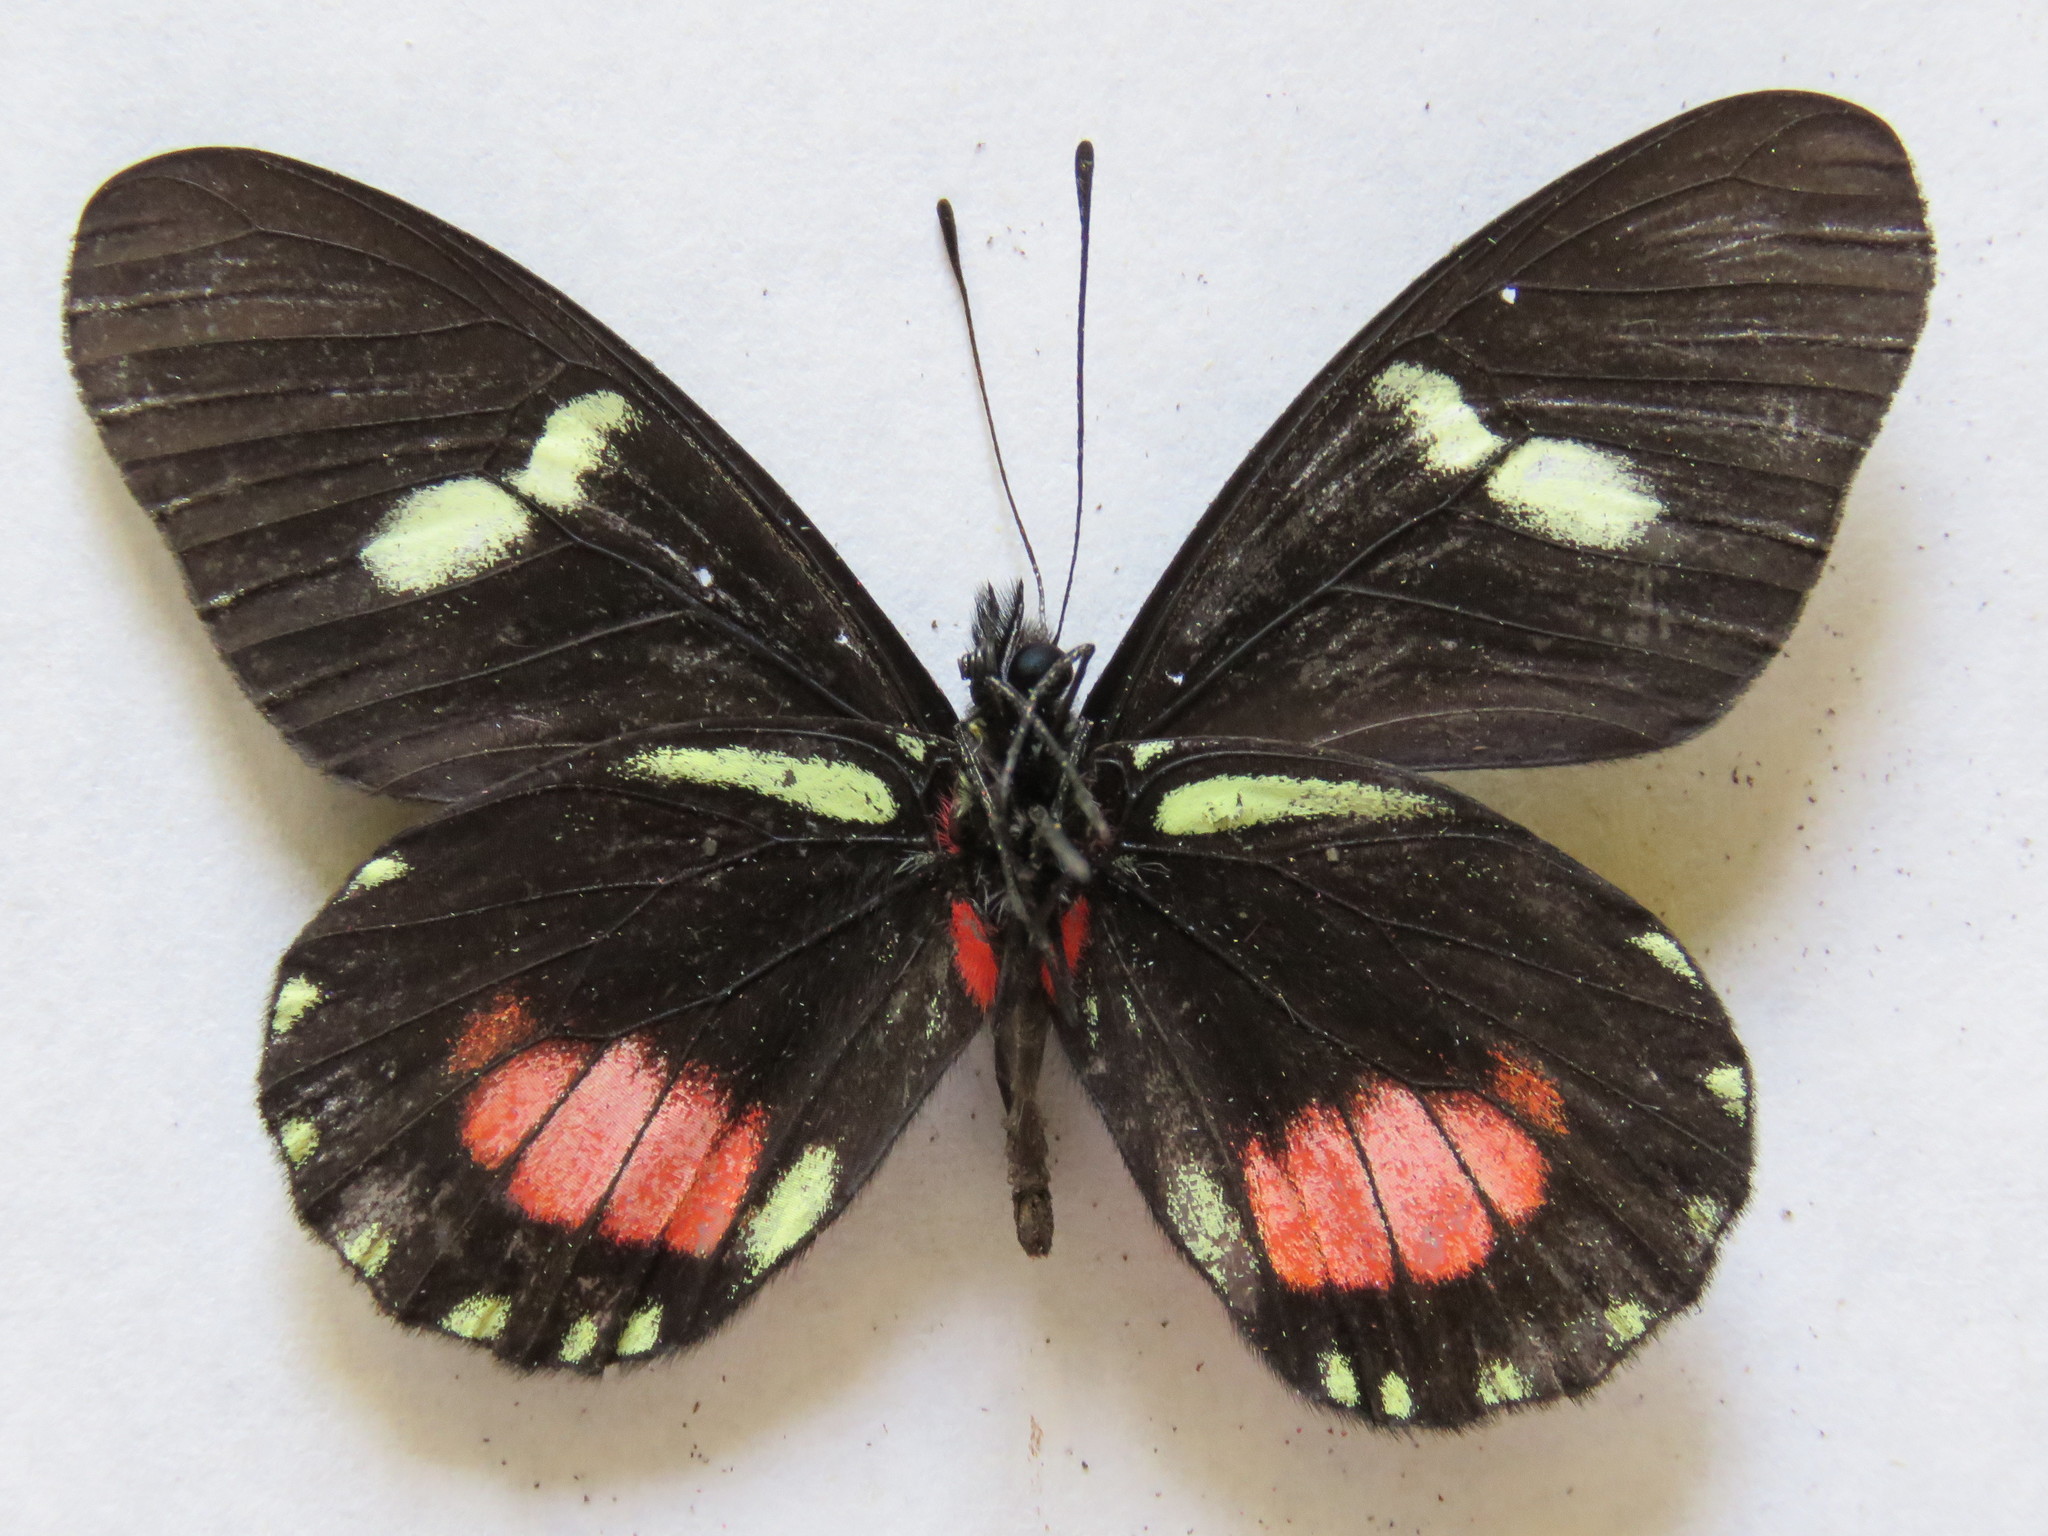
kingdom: Animalia
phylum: Arthropoda
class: Insecta
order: Lepidoptera
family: Pieridae
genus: Archonias
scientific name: Archonias brassolis
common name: Cattleheart white
